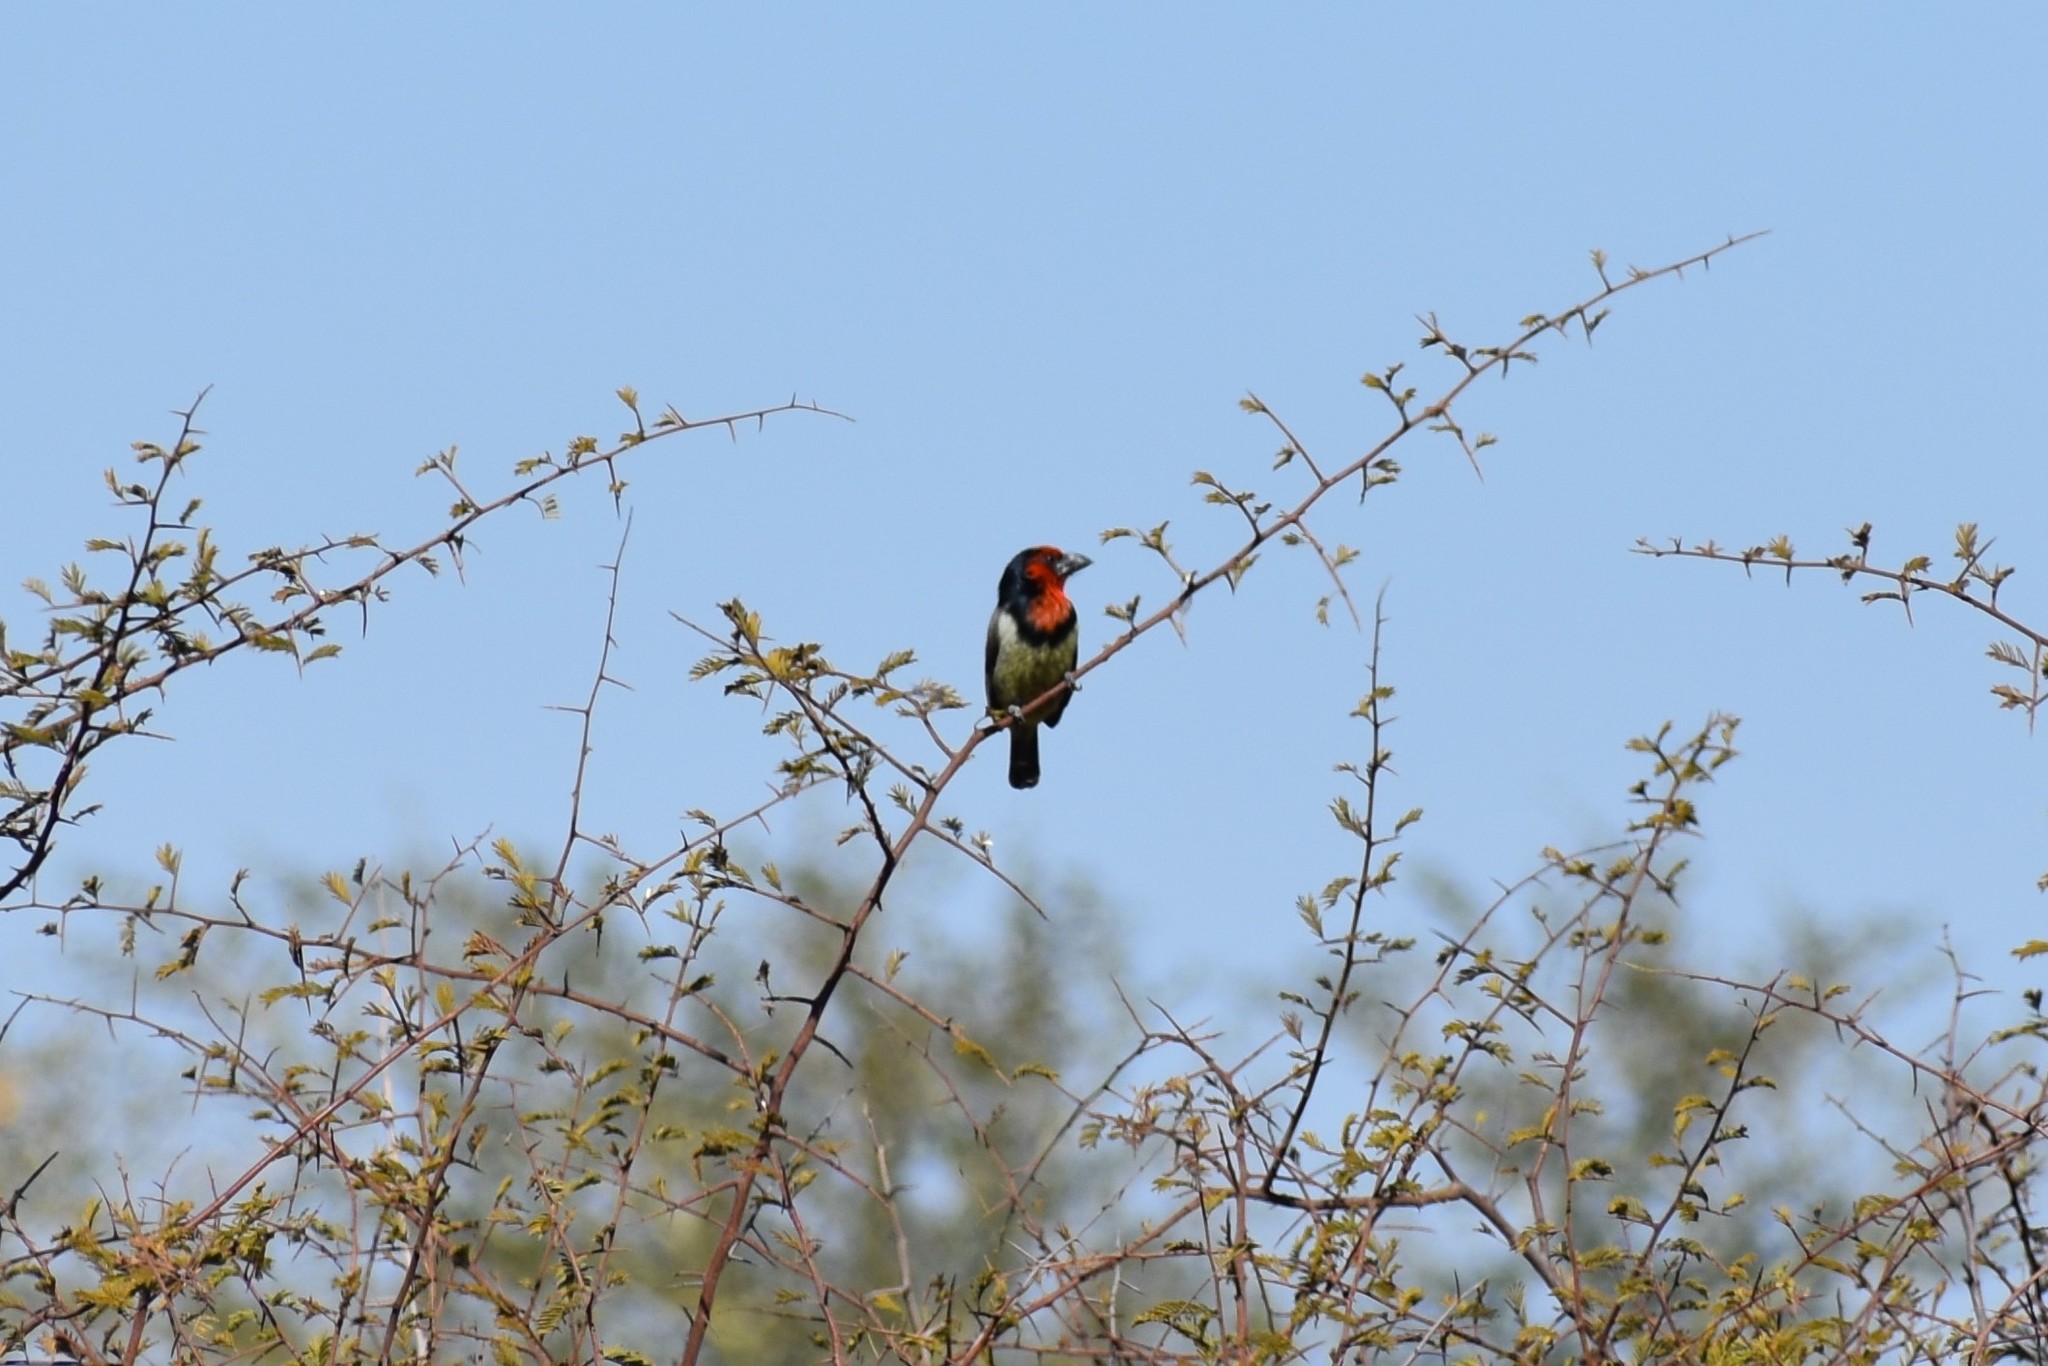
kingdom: Animalia
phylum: Chordata
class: Aves
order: Piciformes
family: Lybiidae
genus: Lybius
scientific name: Lybius torquatus
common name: Black-collared barbet
